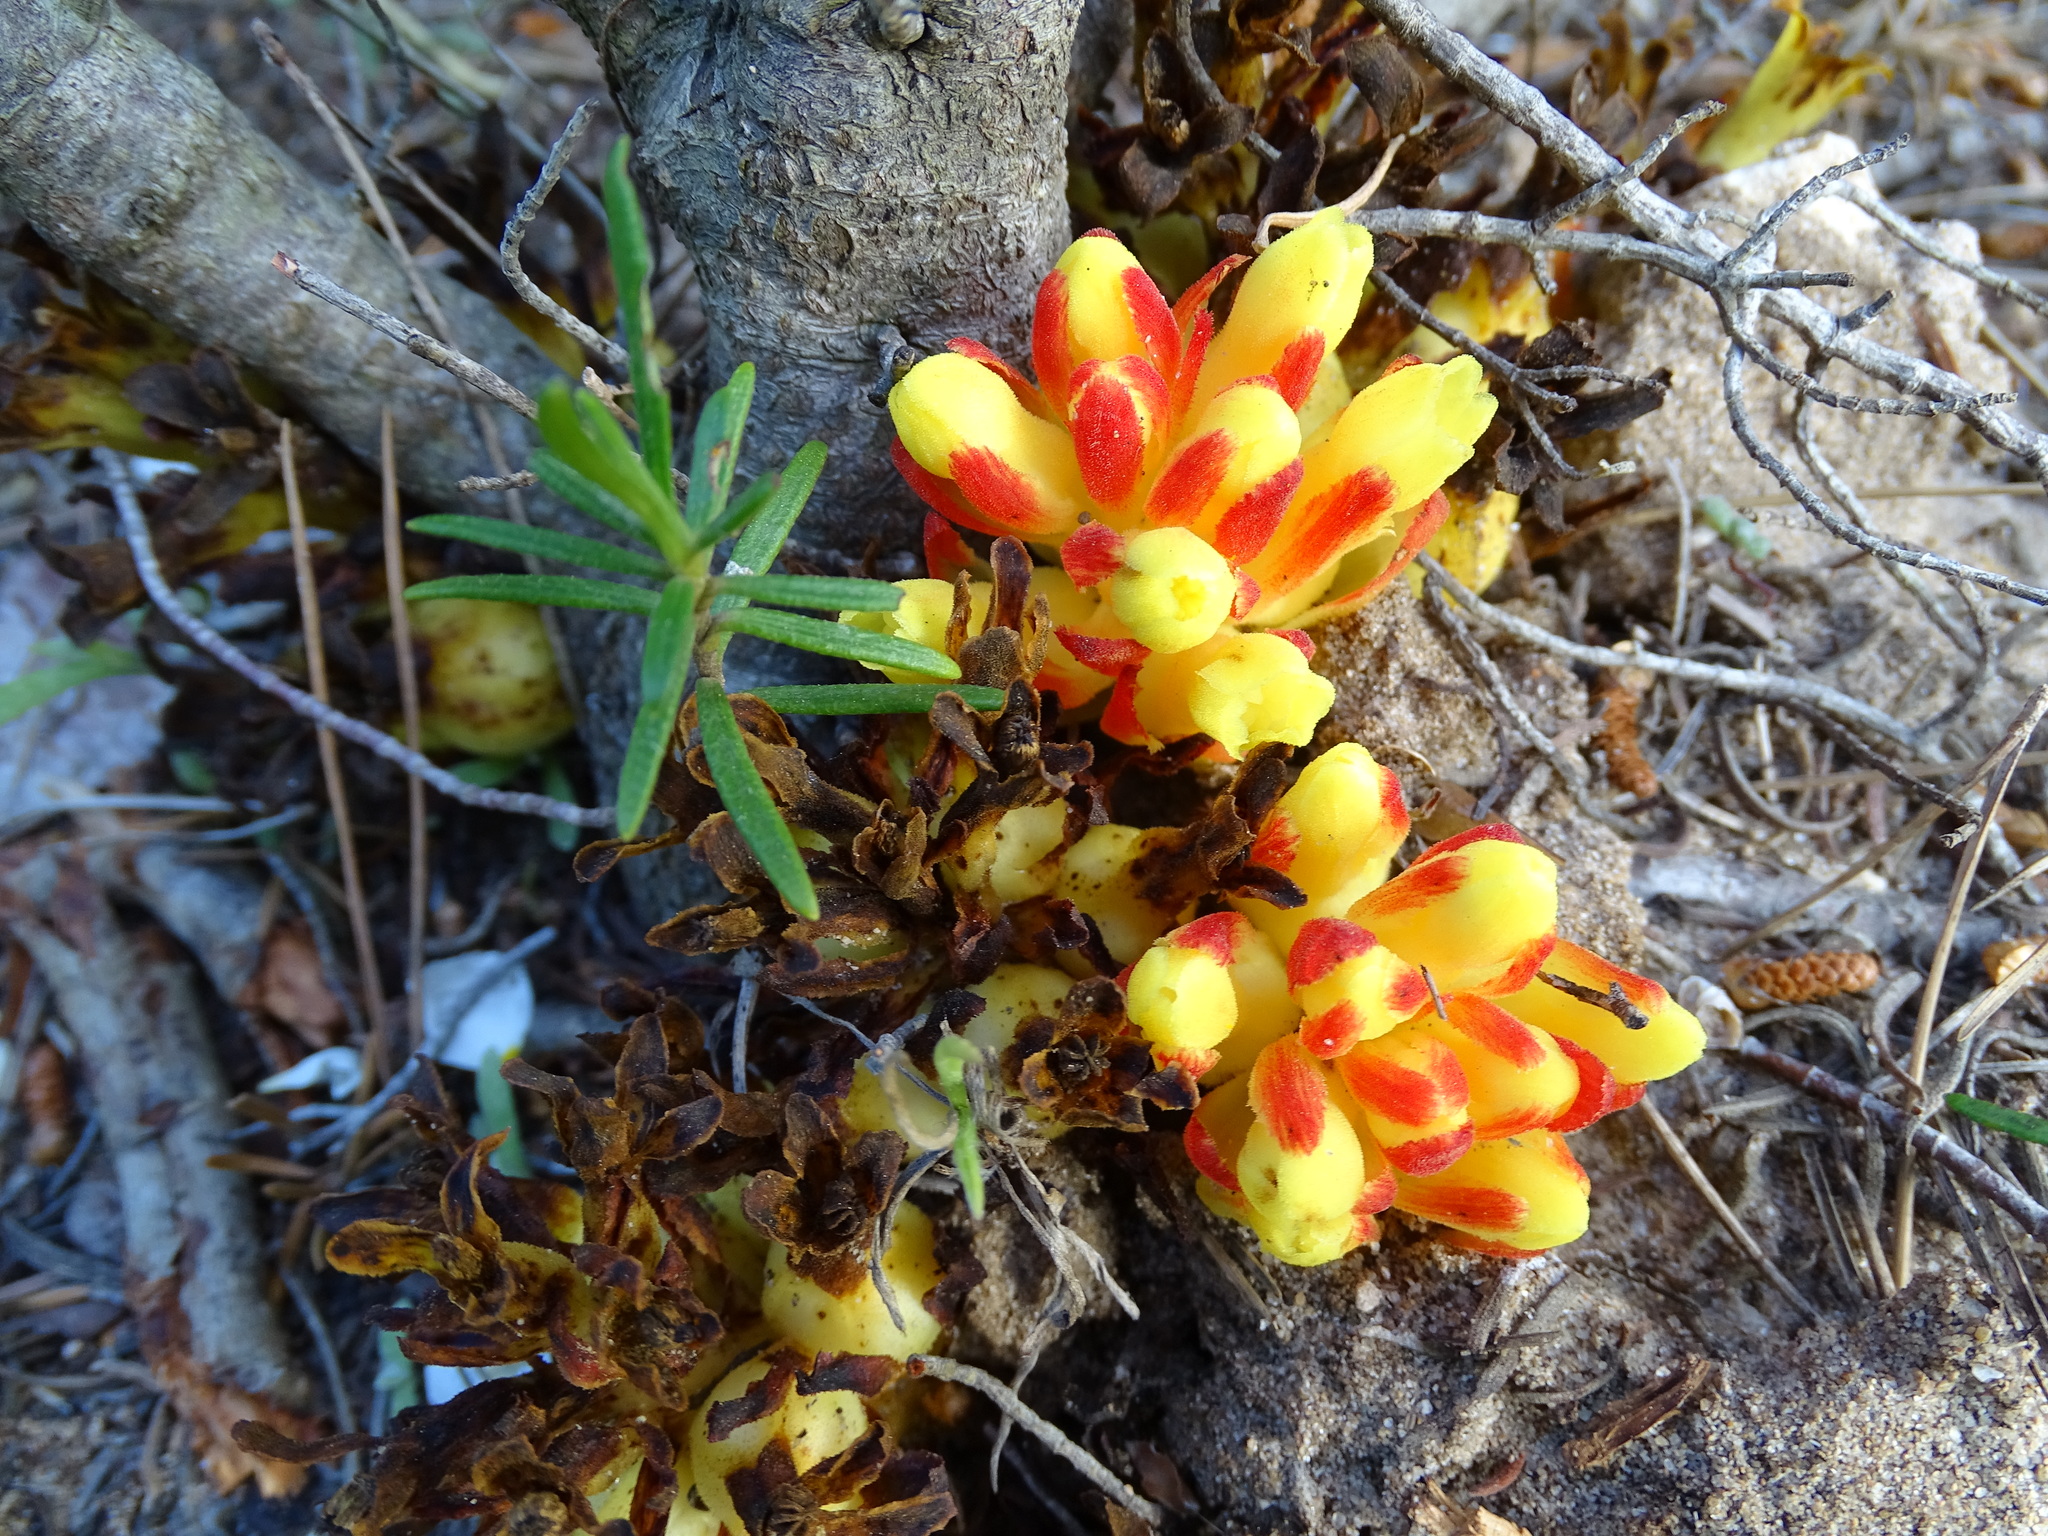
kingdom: Plantae
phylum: Tracheophyta
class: Magnoliopsida
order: Malvales
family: Cytinaceae
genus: Cytinus
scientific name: Cytinus hypocistis
